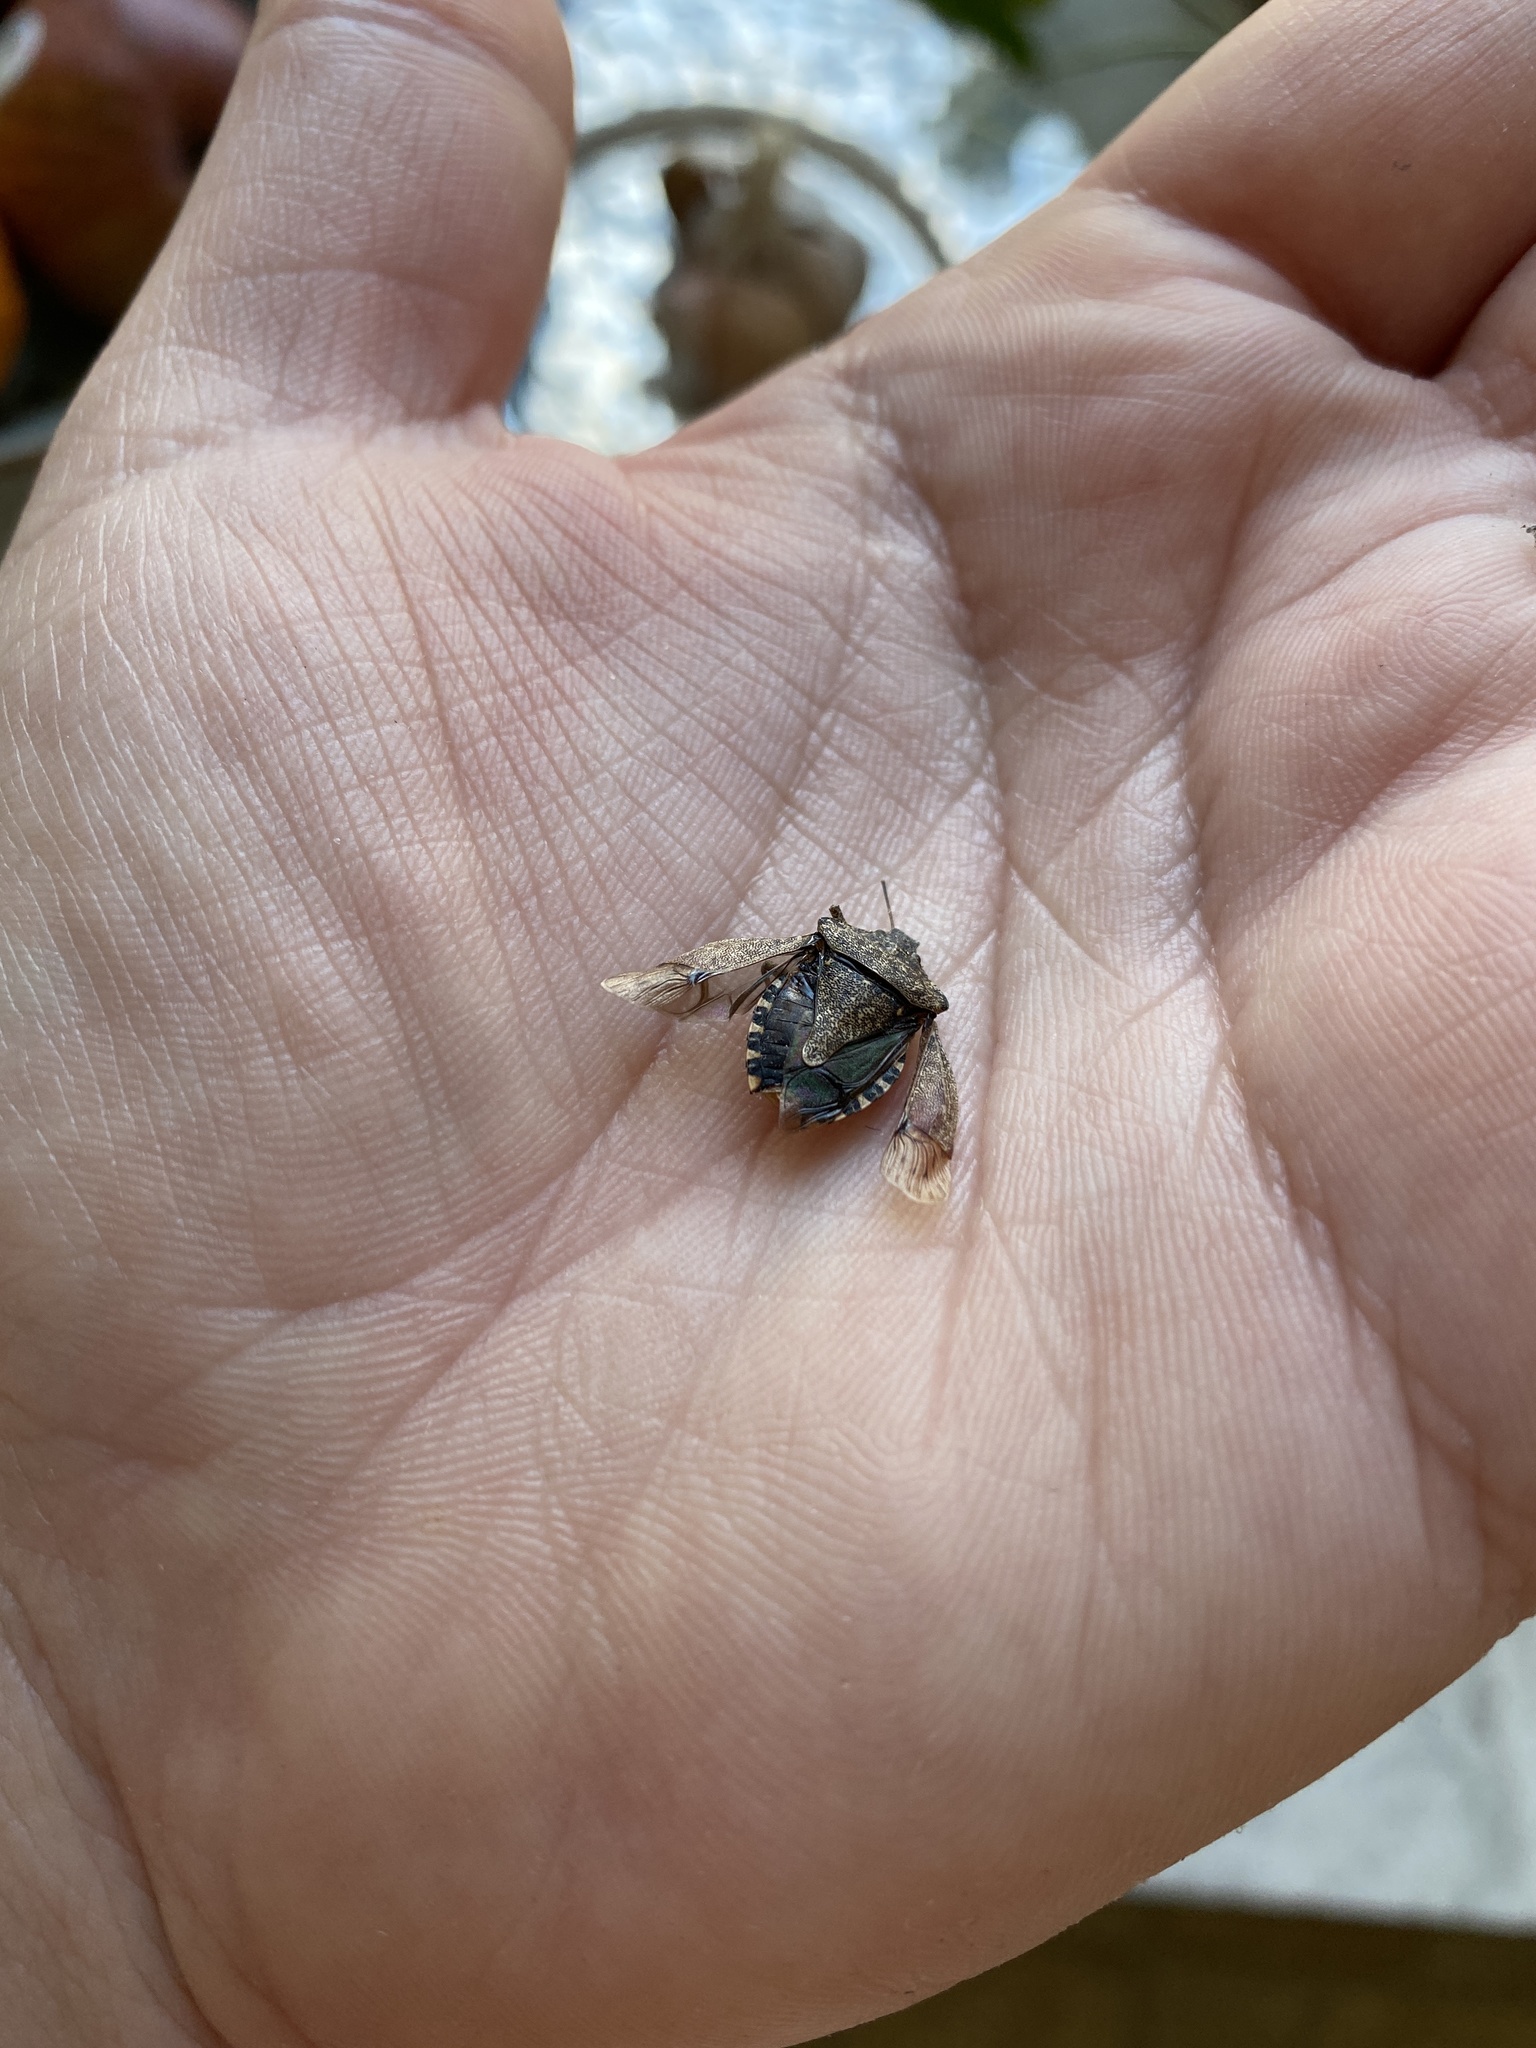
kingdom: Animalia
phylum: Arthropoda
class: Insecta
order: Hemiptera
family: Pentatomidae
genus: Halyomorpha
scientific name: Halyomorpha halys
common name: Brown marmorated stink bug
